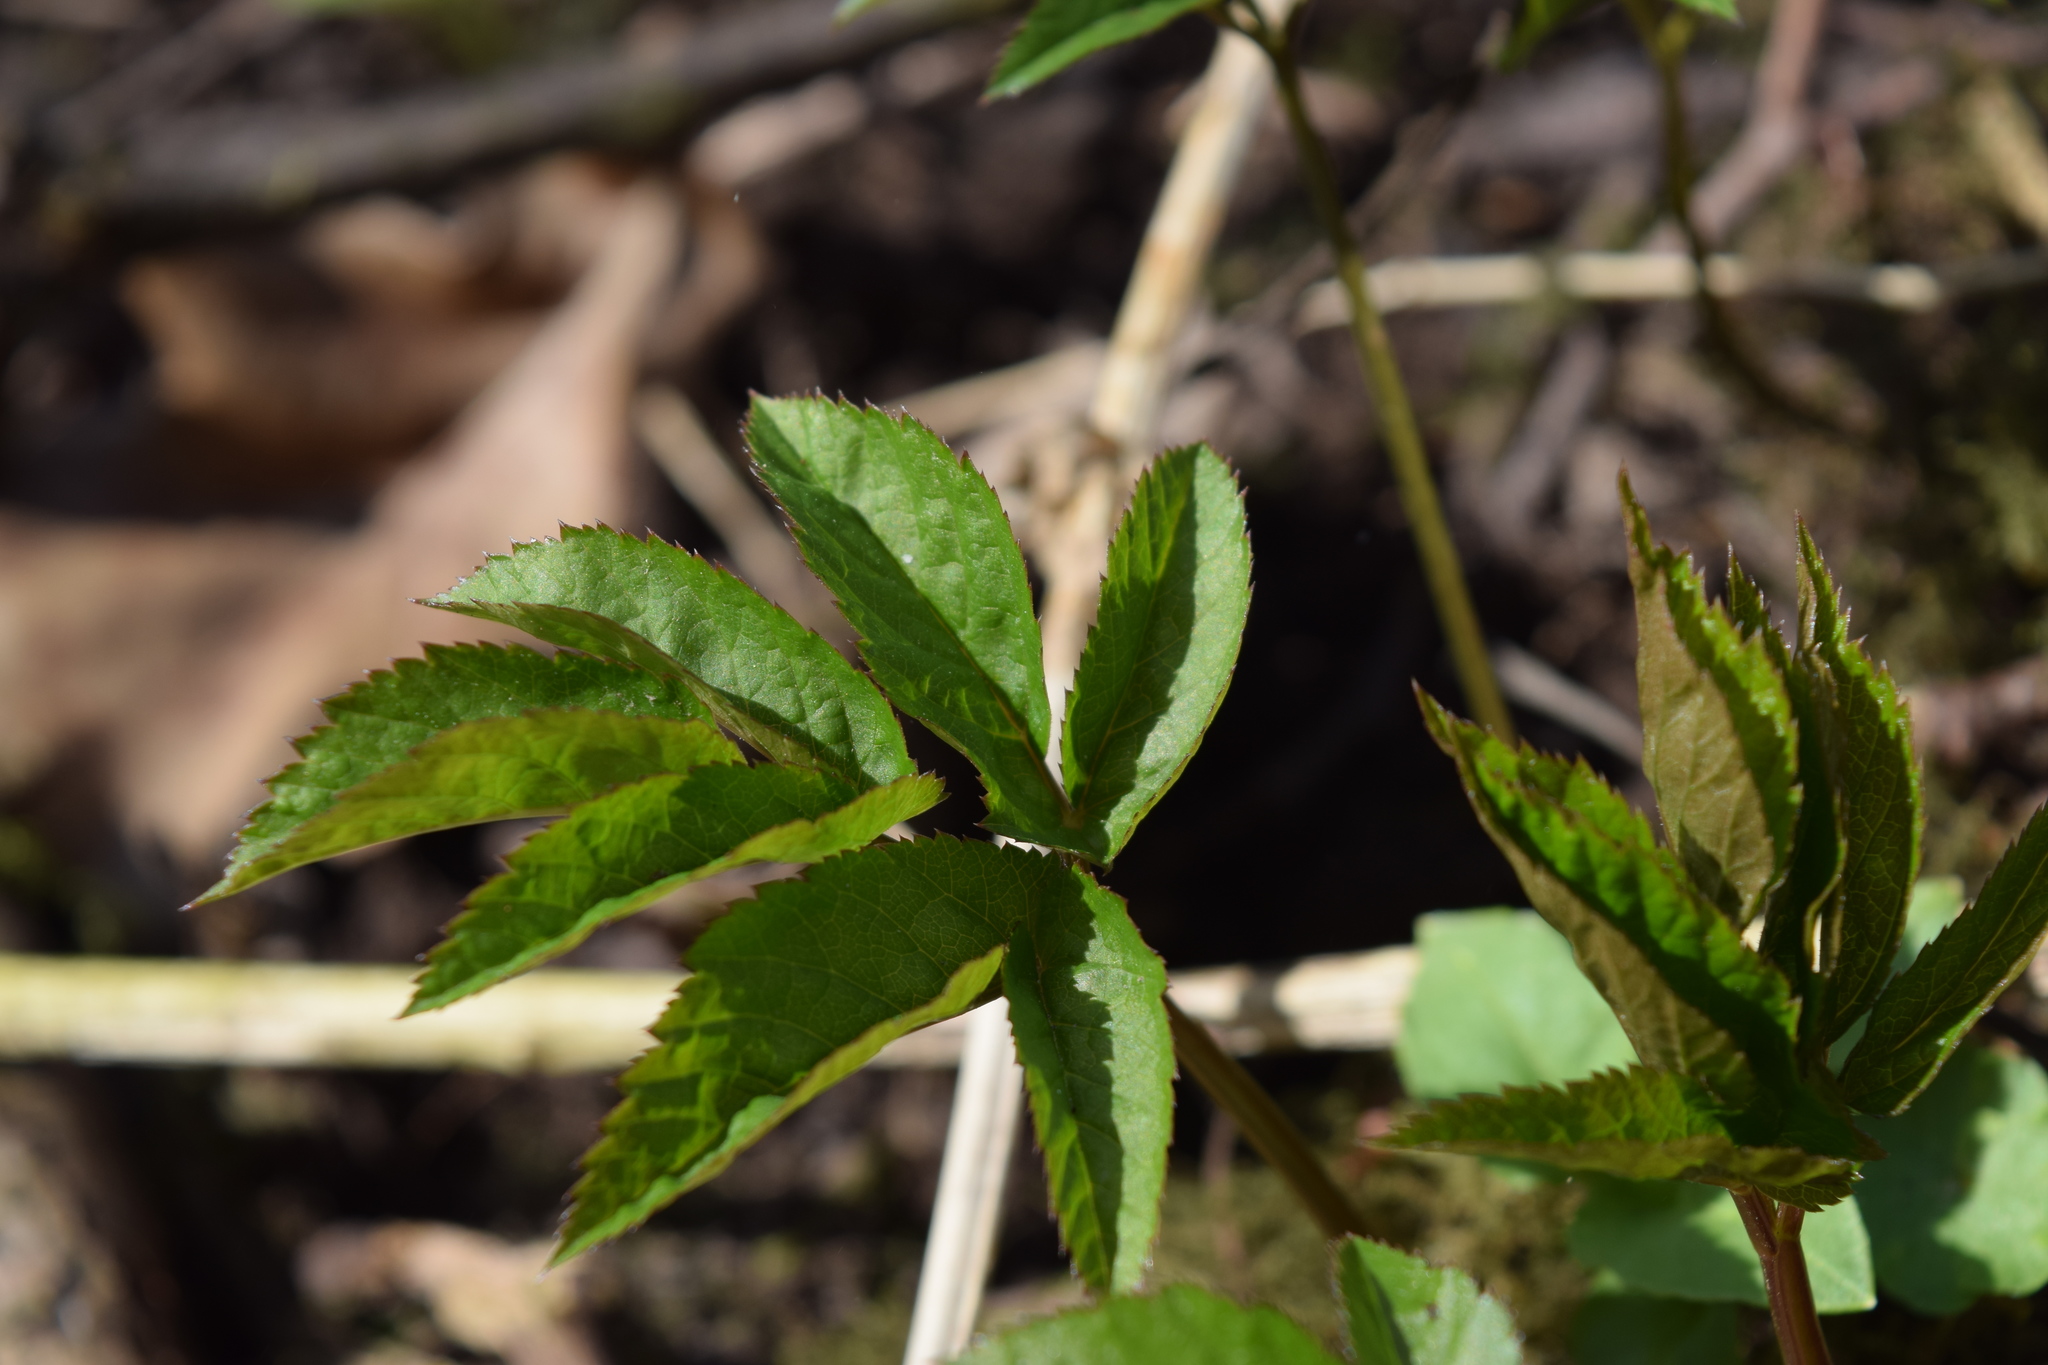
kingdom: Plantae
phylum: Tracheophyta
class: Magnoliopsida
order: Apiales
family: Apiaceae
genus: Aegopodium
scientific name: Aegopodium podagraria
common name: Ground-elder
